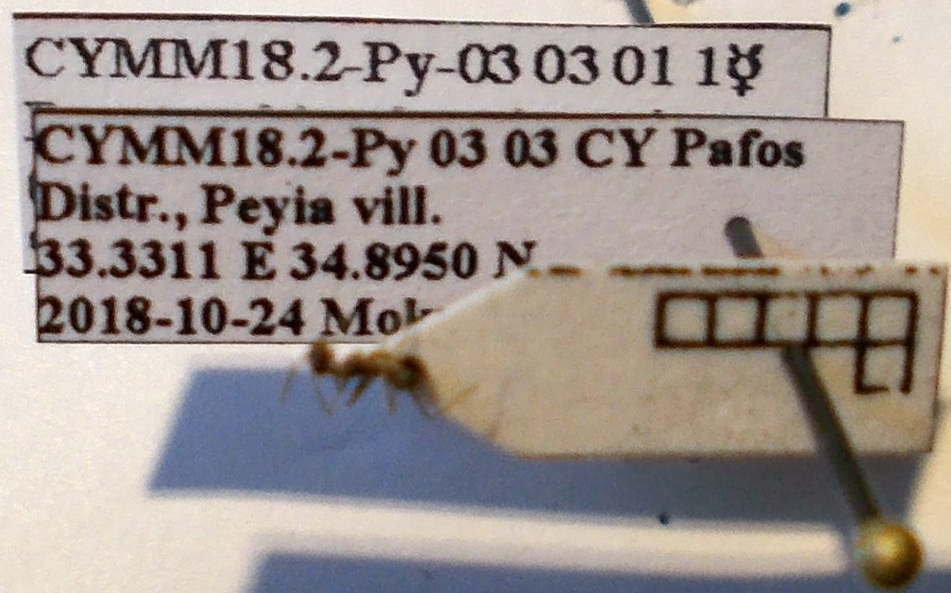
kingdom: Animalia
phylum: Arthropoda
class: Insecta
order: Hymenoptera
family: Formicidae
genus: Paratrechina
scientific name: Paratrechina longicornis
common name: Longhorned crazy ant
